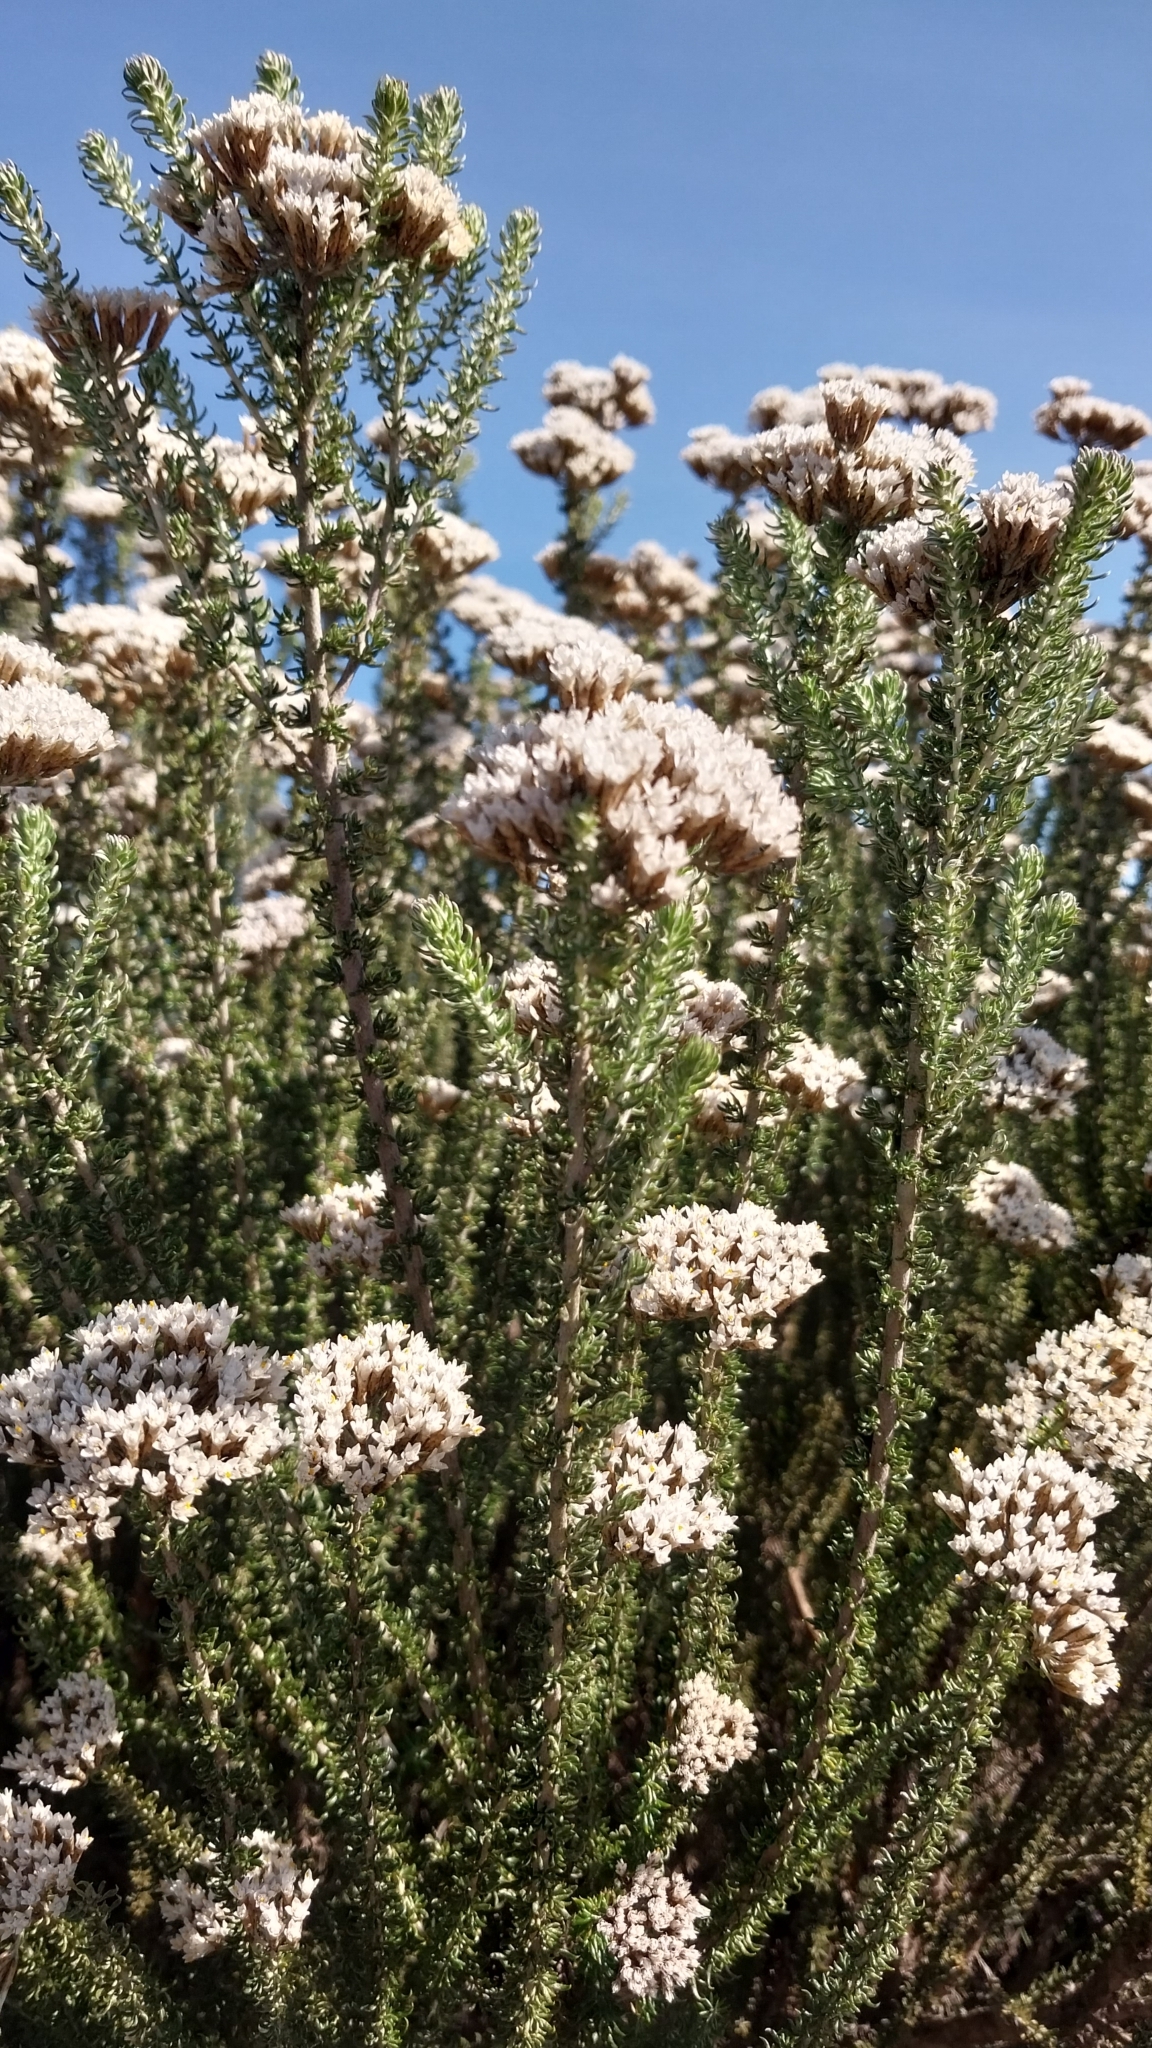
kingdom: Plantae
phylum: Tracheophyta
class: Magnoliopsida
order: Asterales
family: Asteraceae
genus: Metalasia
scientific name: Metalasia muricata
